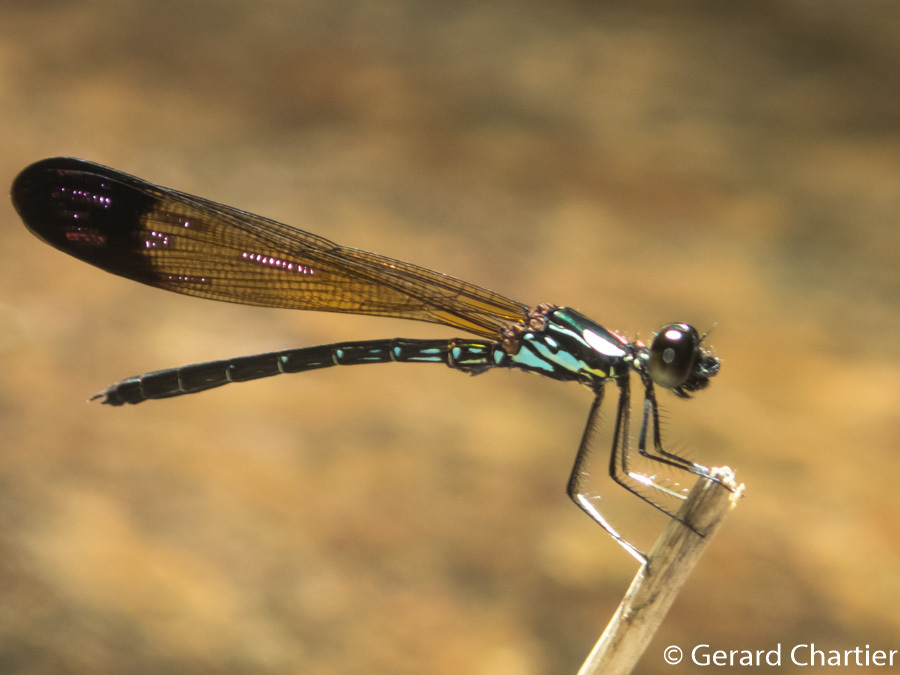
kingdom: Animalia
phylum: Arthropoda
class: Insecta
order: Odonata
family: Chlorocyphidae
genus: Heliocypha
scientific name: Heliocypha biforata
